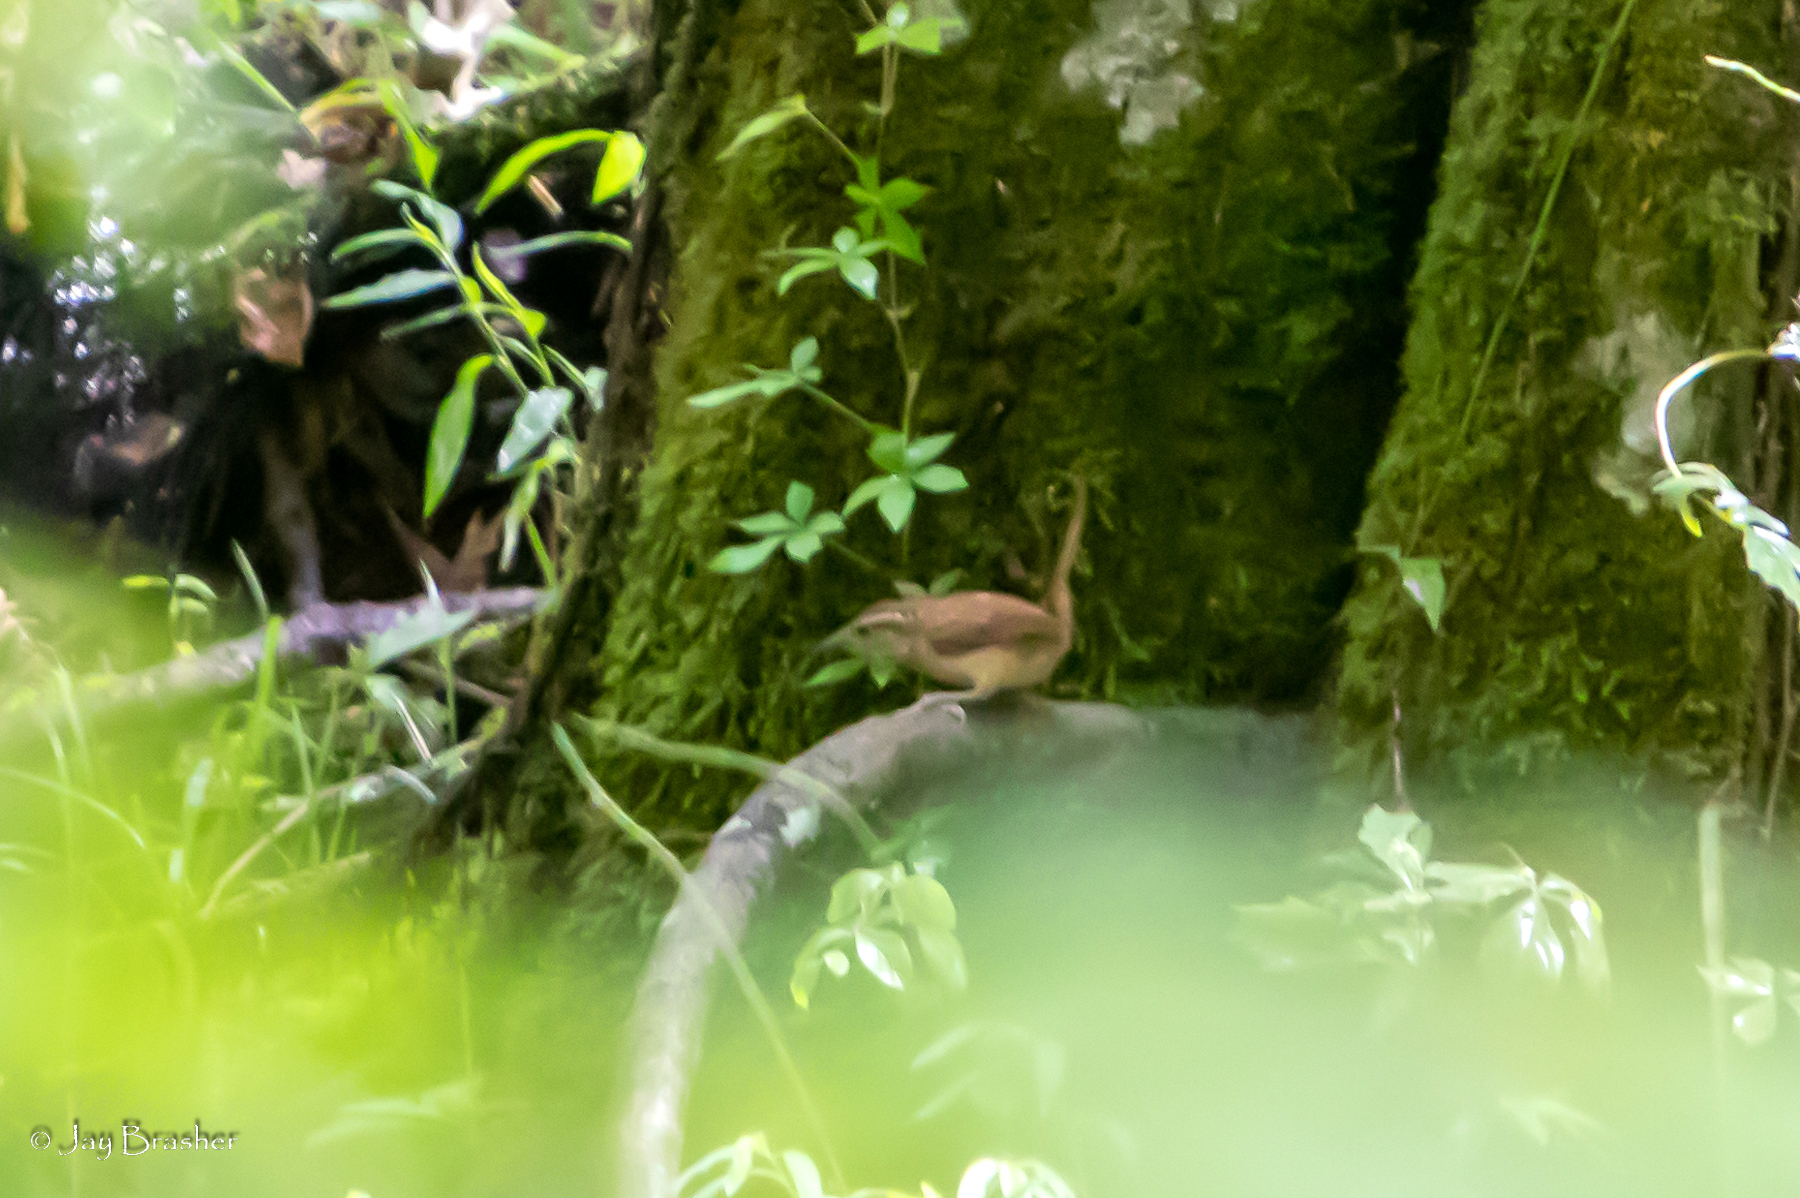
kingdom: Animalia
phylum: Chordata
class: Aves
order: Passeriformes
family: Troglodytidae
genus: Thryothorus
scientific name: Thryothorus ludovicianus
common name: Carolina wren
